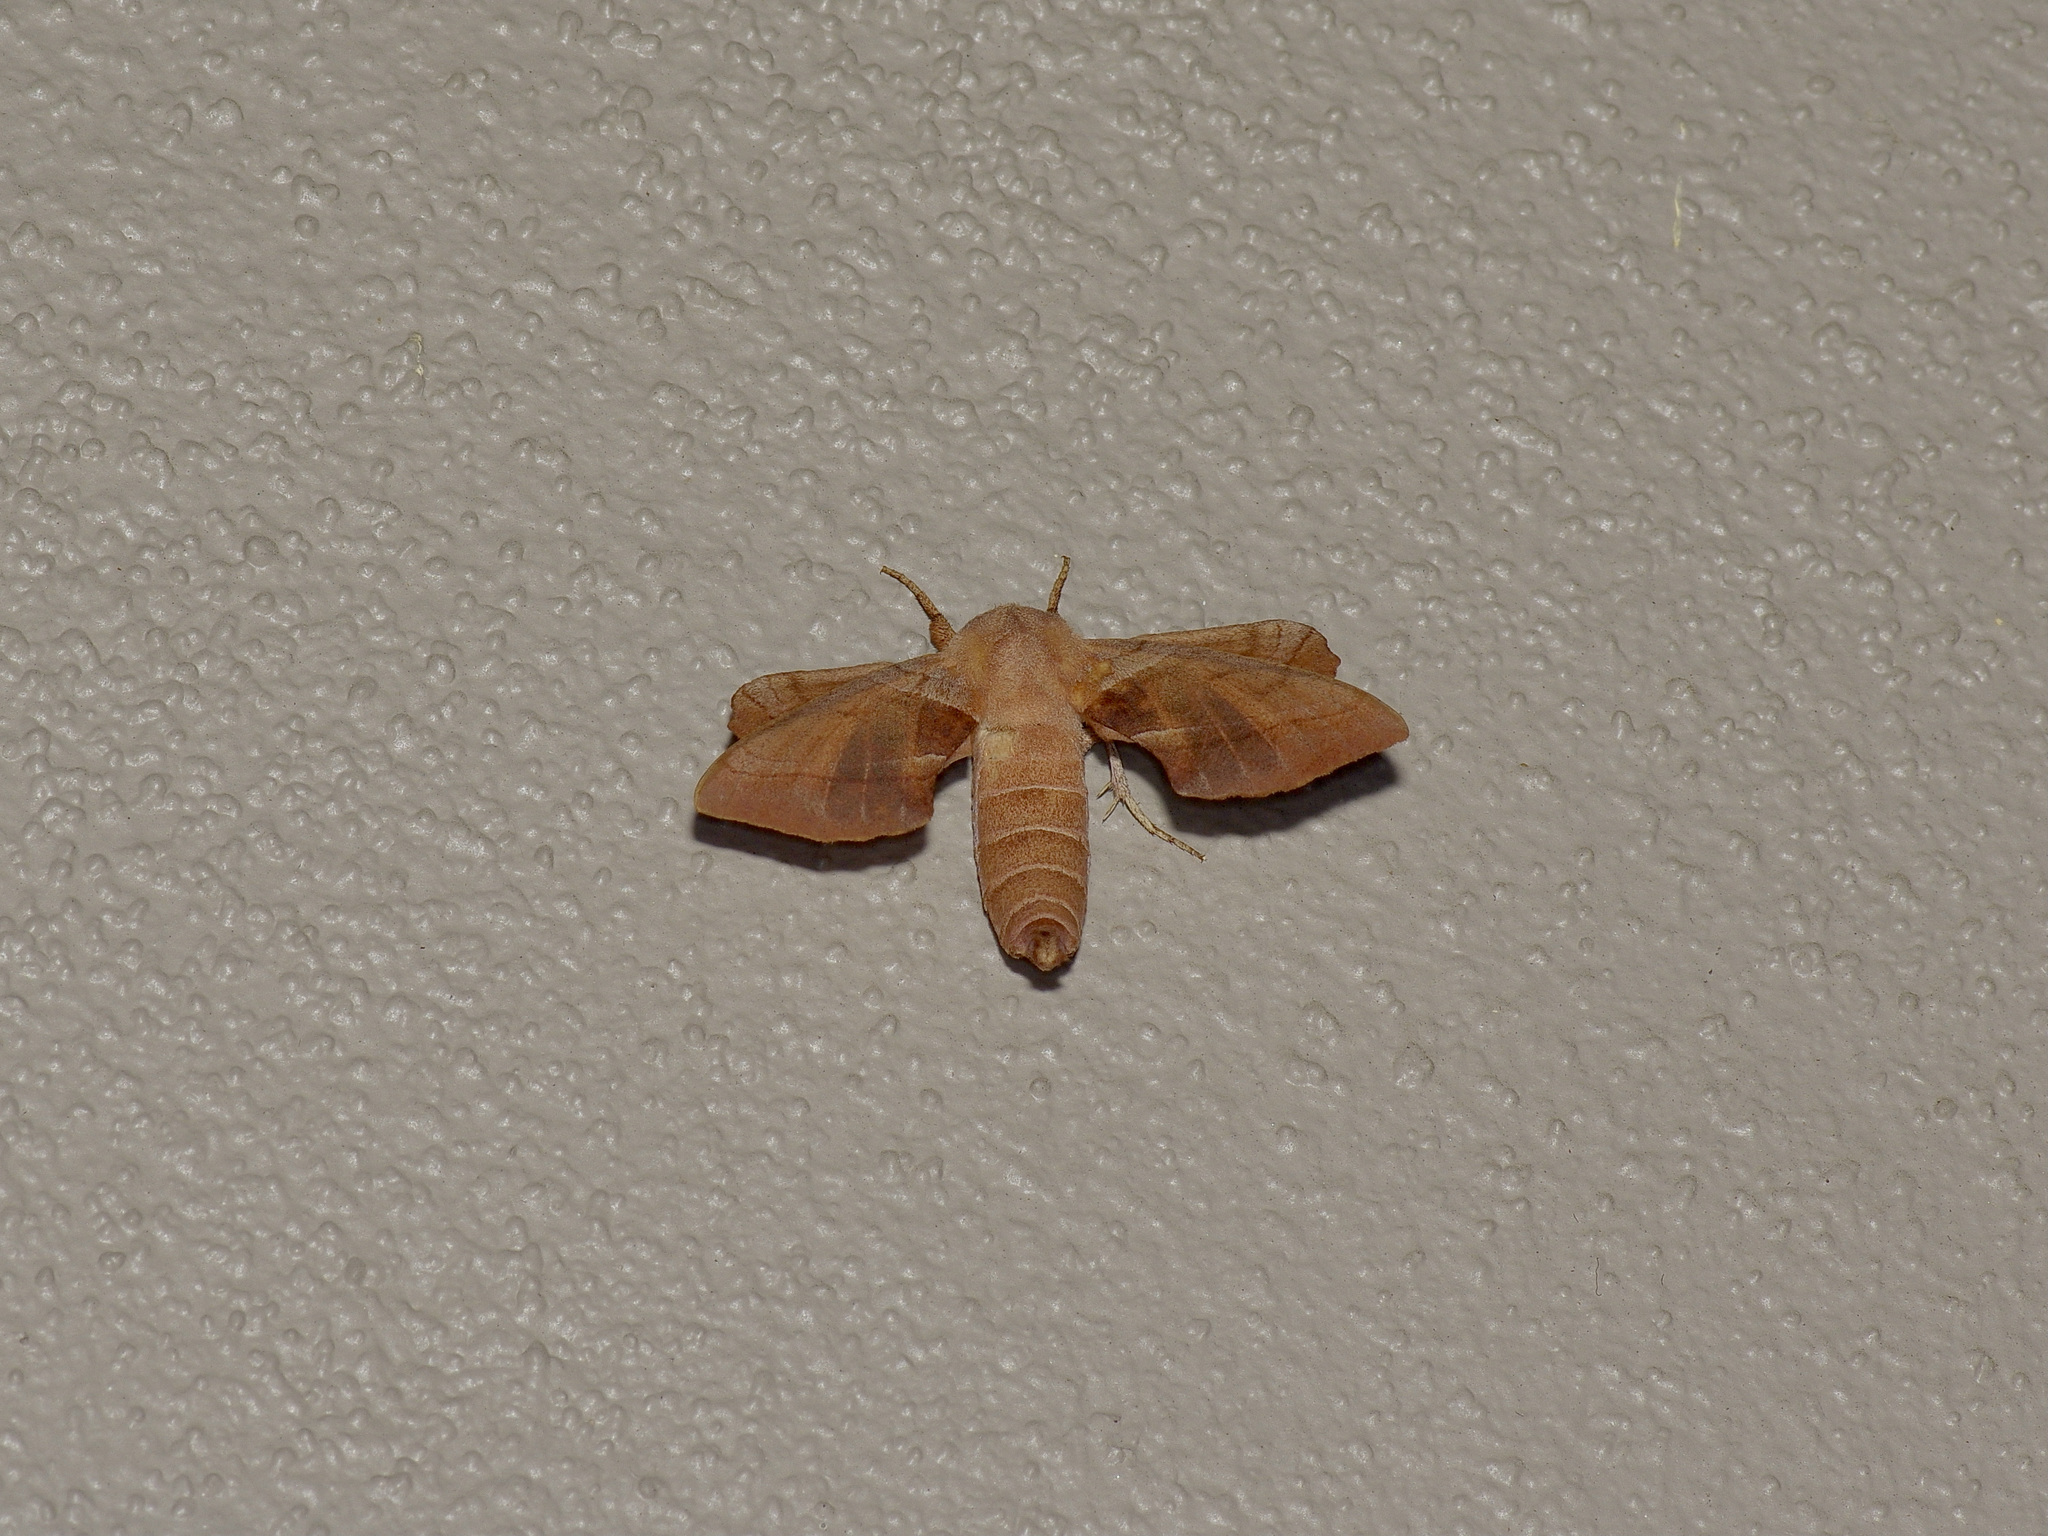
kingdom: Animalia
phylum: Arthropoda
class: Insecta
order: Lepidoptera
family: Sphingidae
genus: Amorpha
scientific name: Amorpha juglandis
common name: Walnut sphinx
